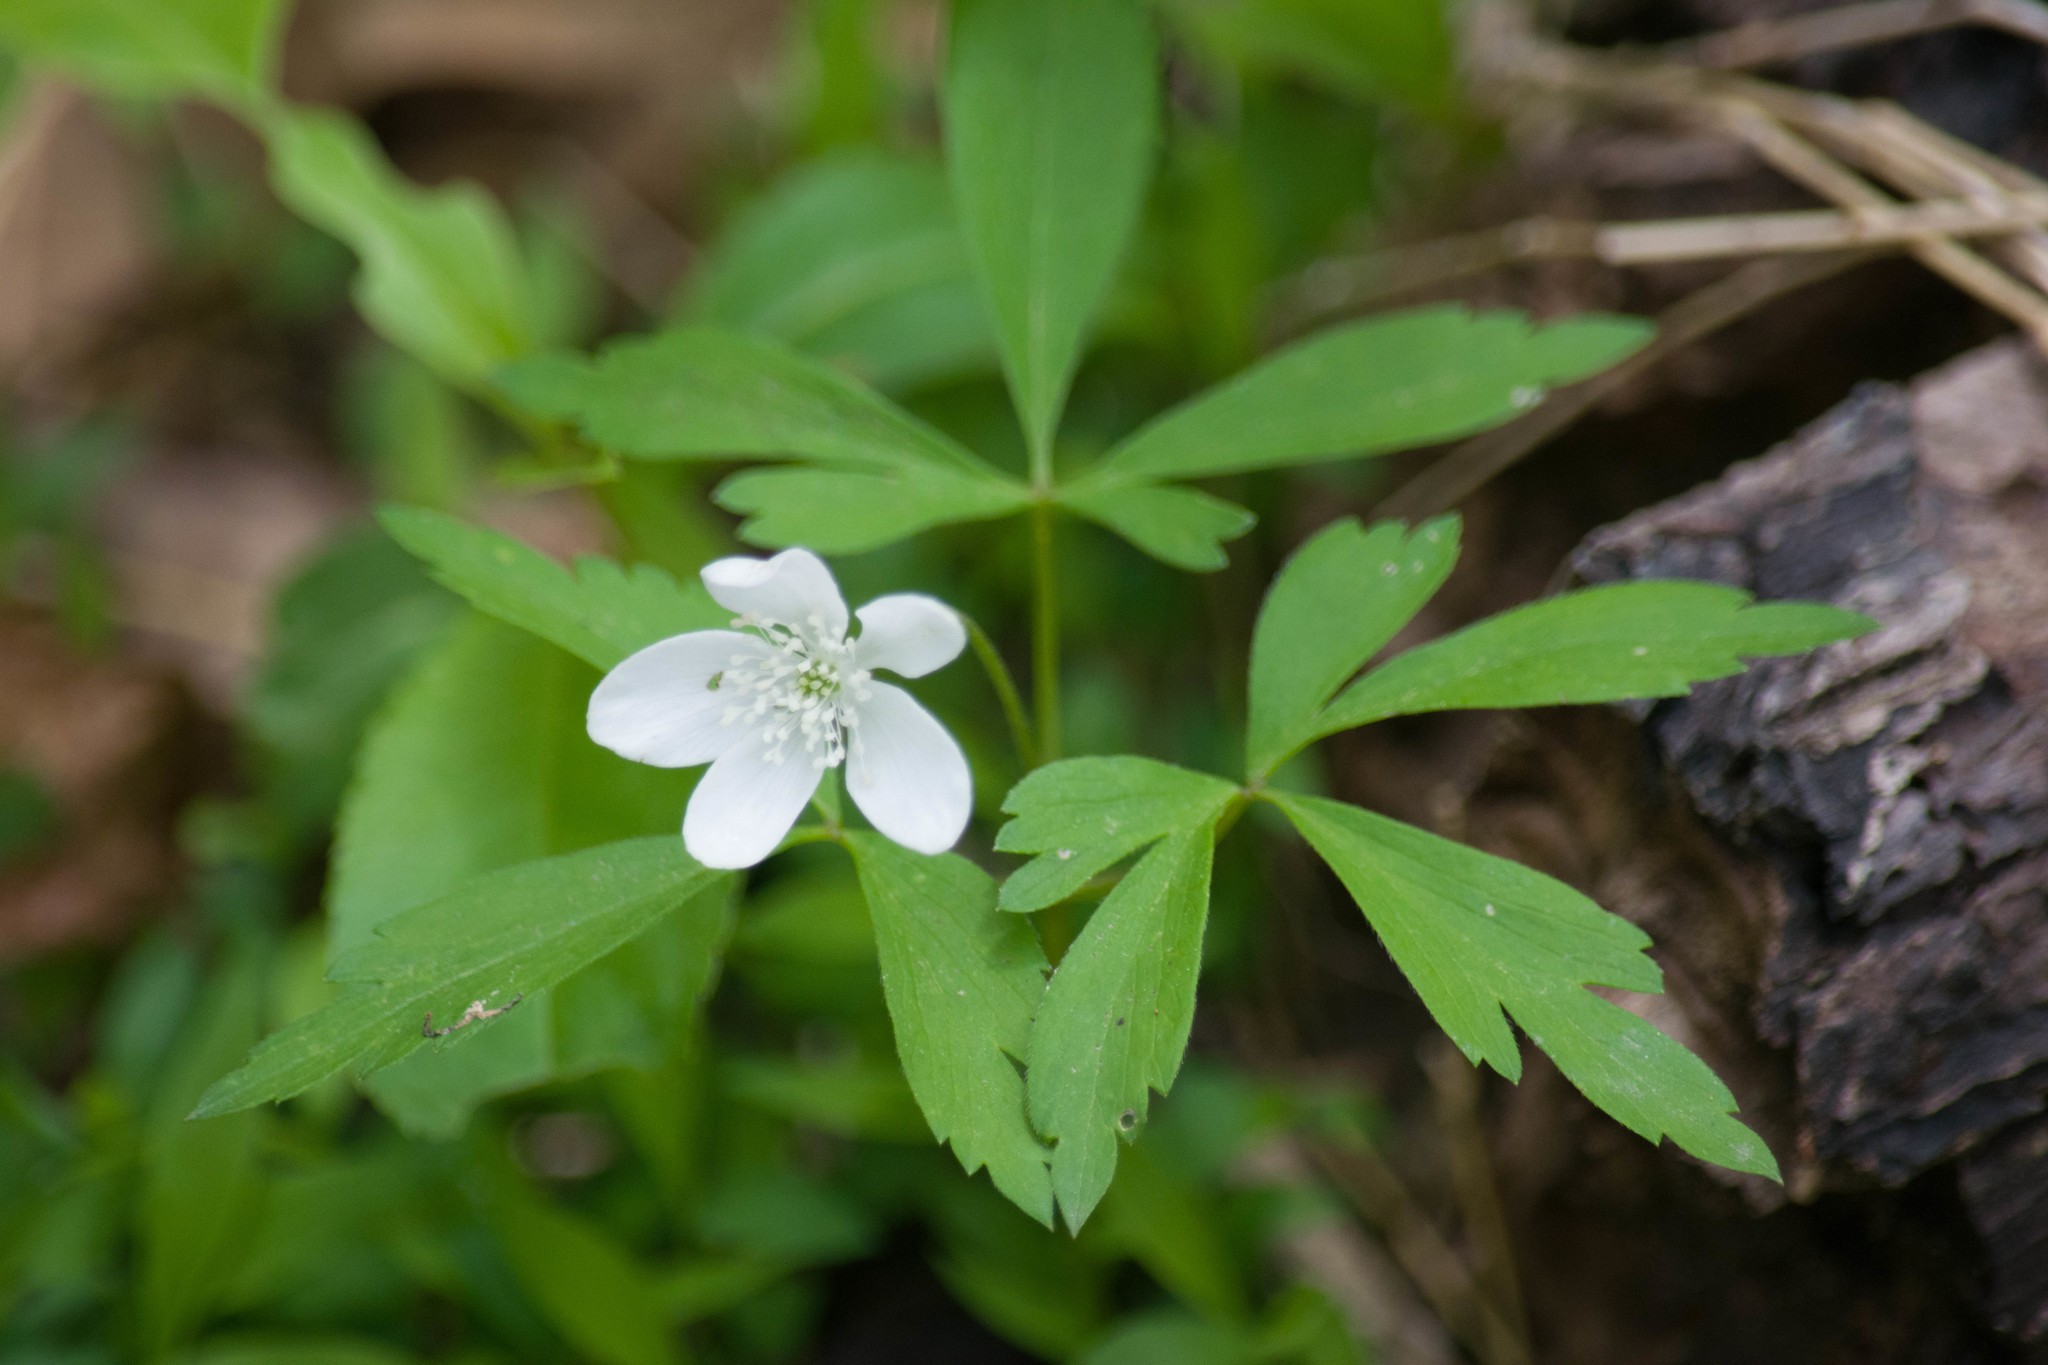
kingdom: Plantae
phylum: Tracheophyta
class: Magnoliopsida
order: Ranunculales
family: Ranunculaceae
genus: Anemone
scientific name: Anemone quinquefolia
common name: Wood anemone
